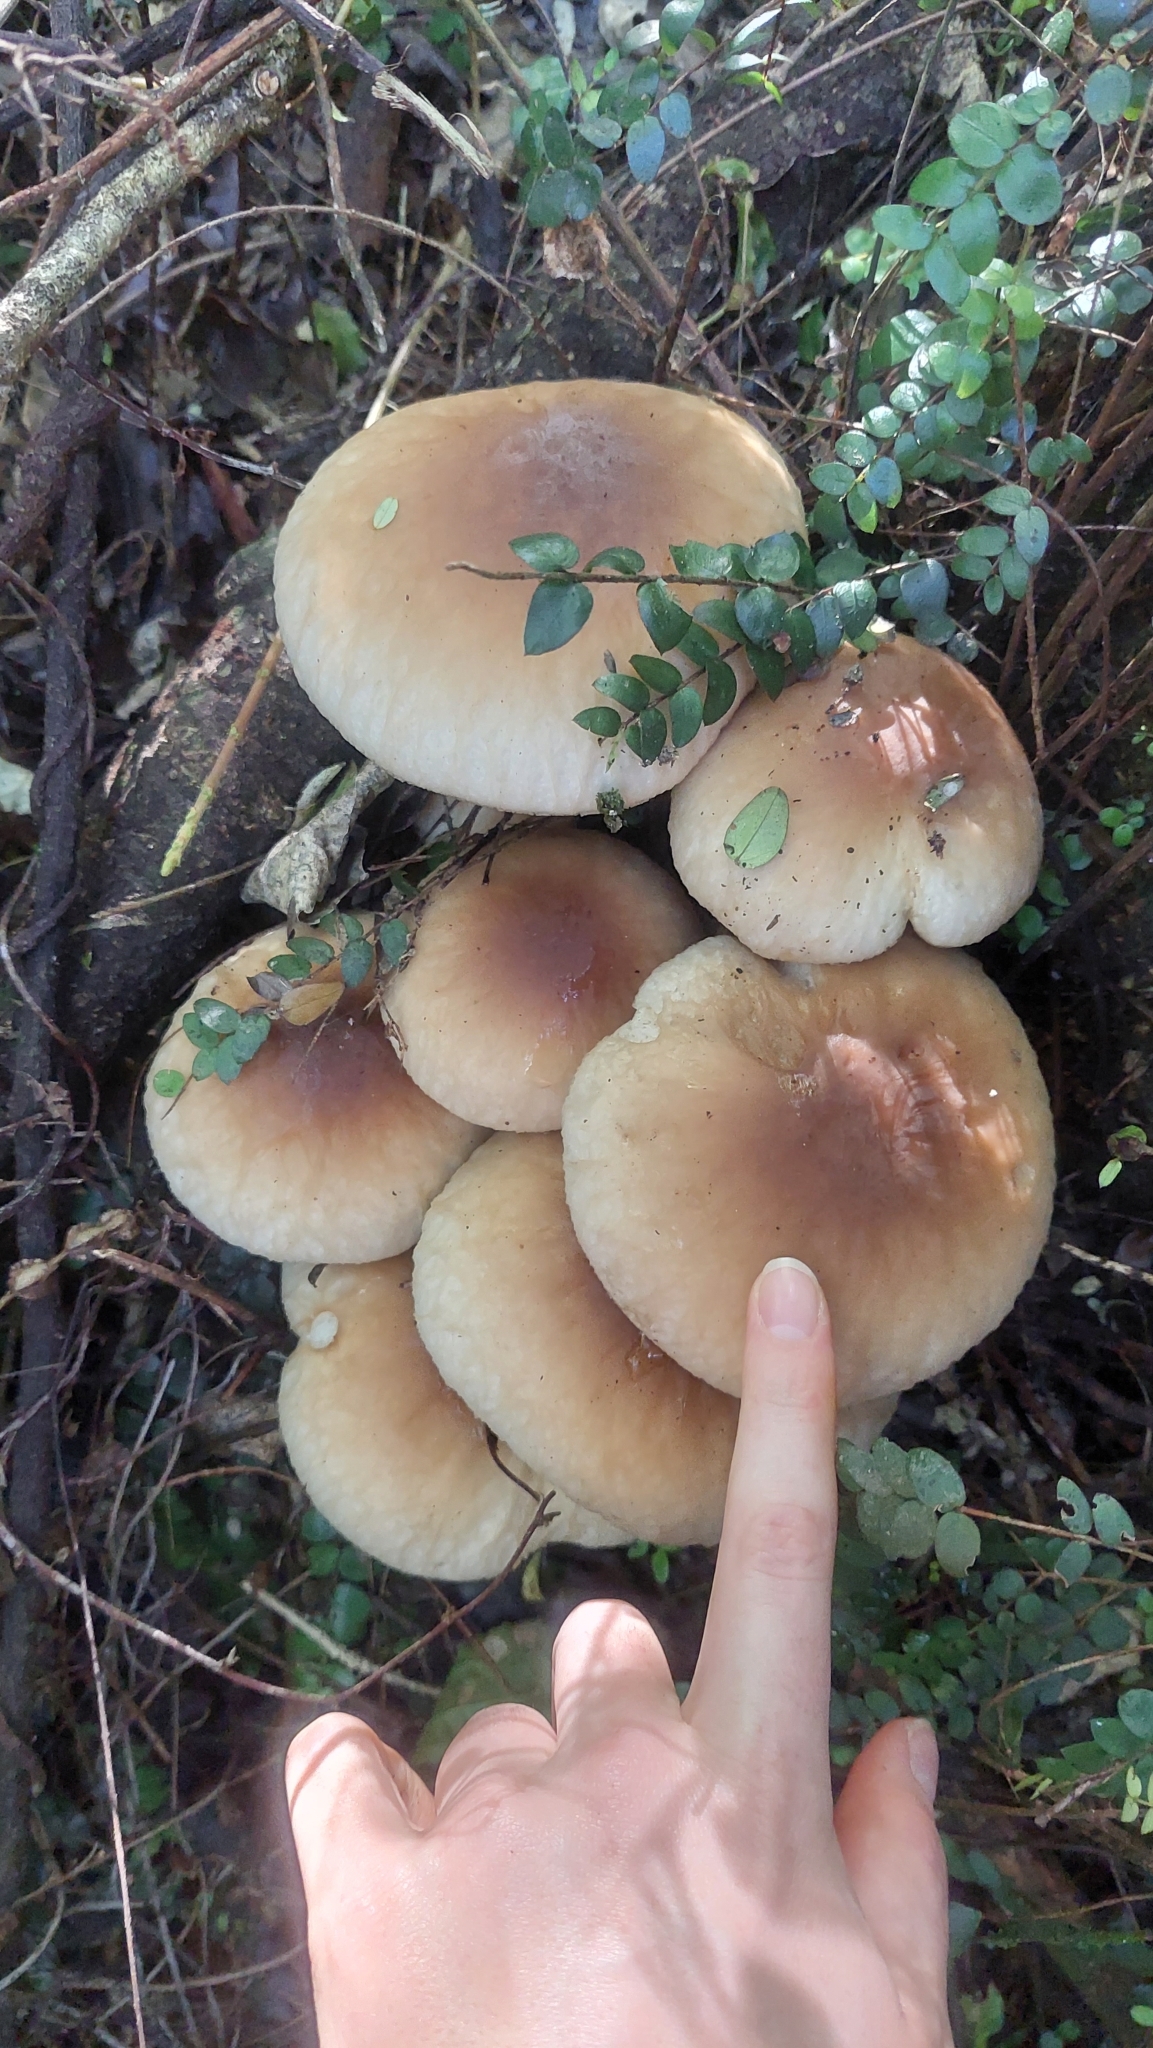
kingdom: Fungi
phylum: Basidiomycota
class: Agaricomycetes
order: Agaricales
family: Tubariaceae
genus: Cyclocybe
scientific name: Cyclocybe parasitica
